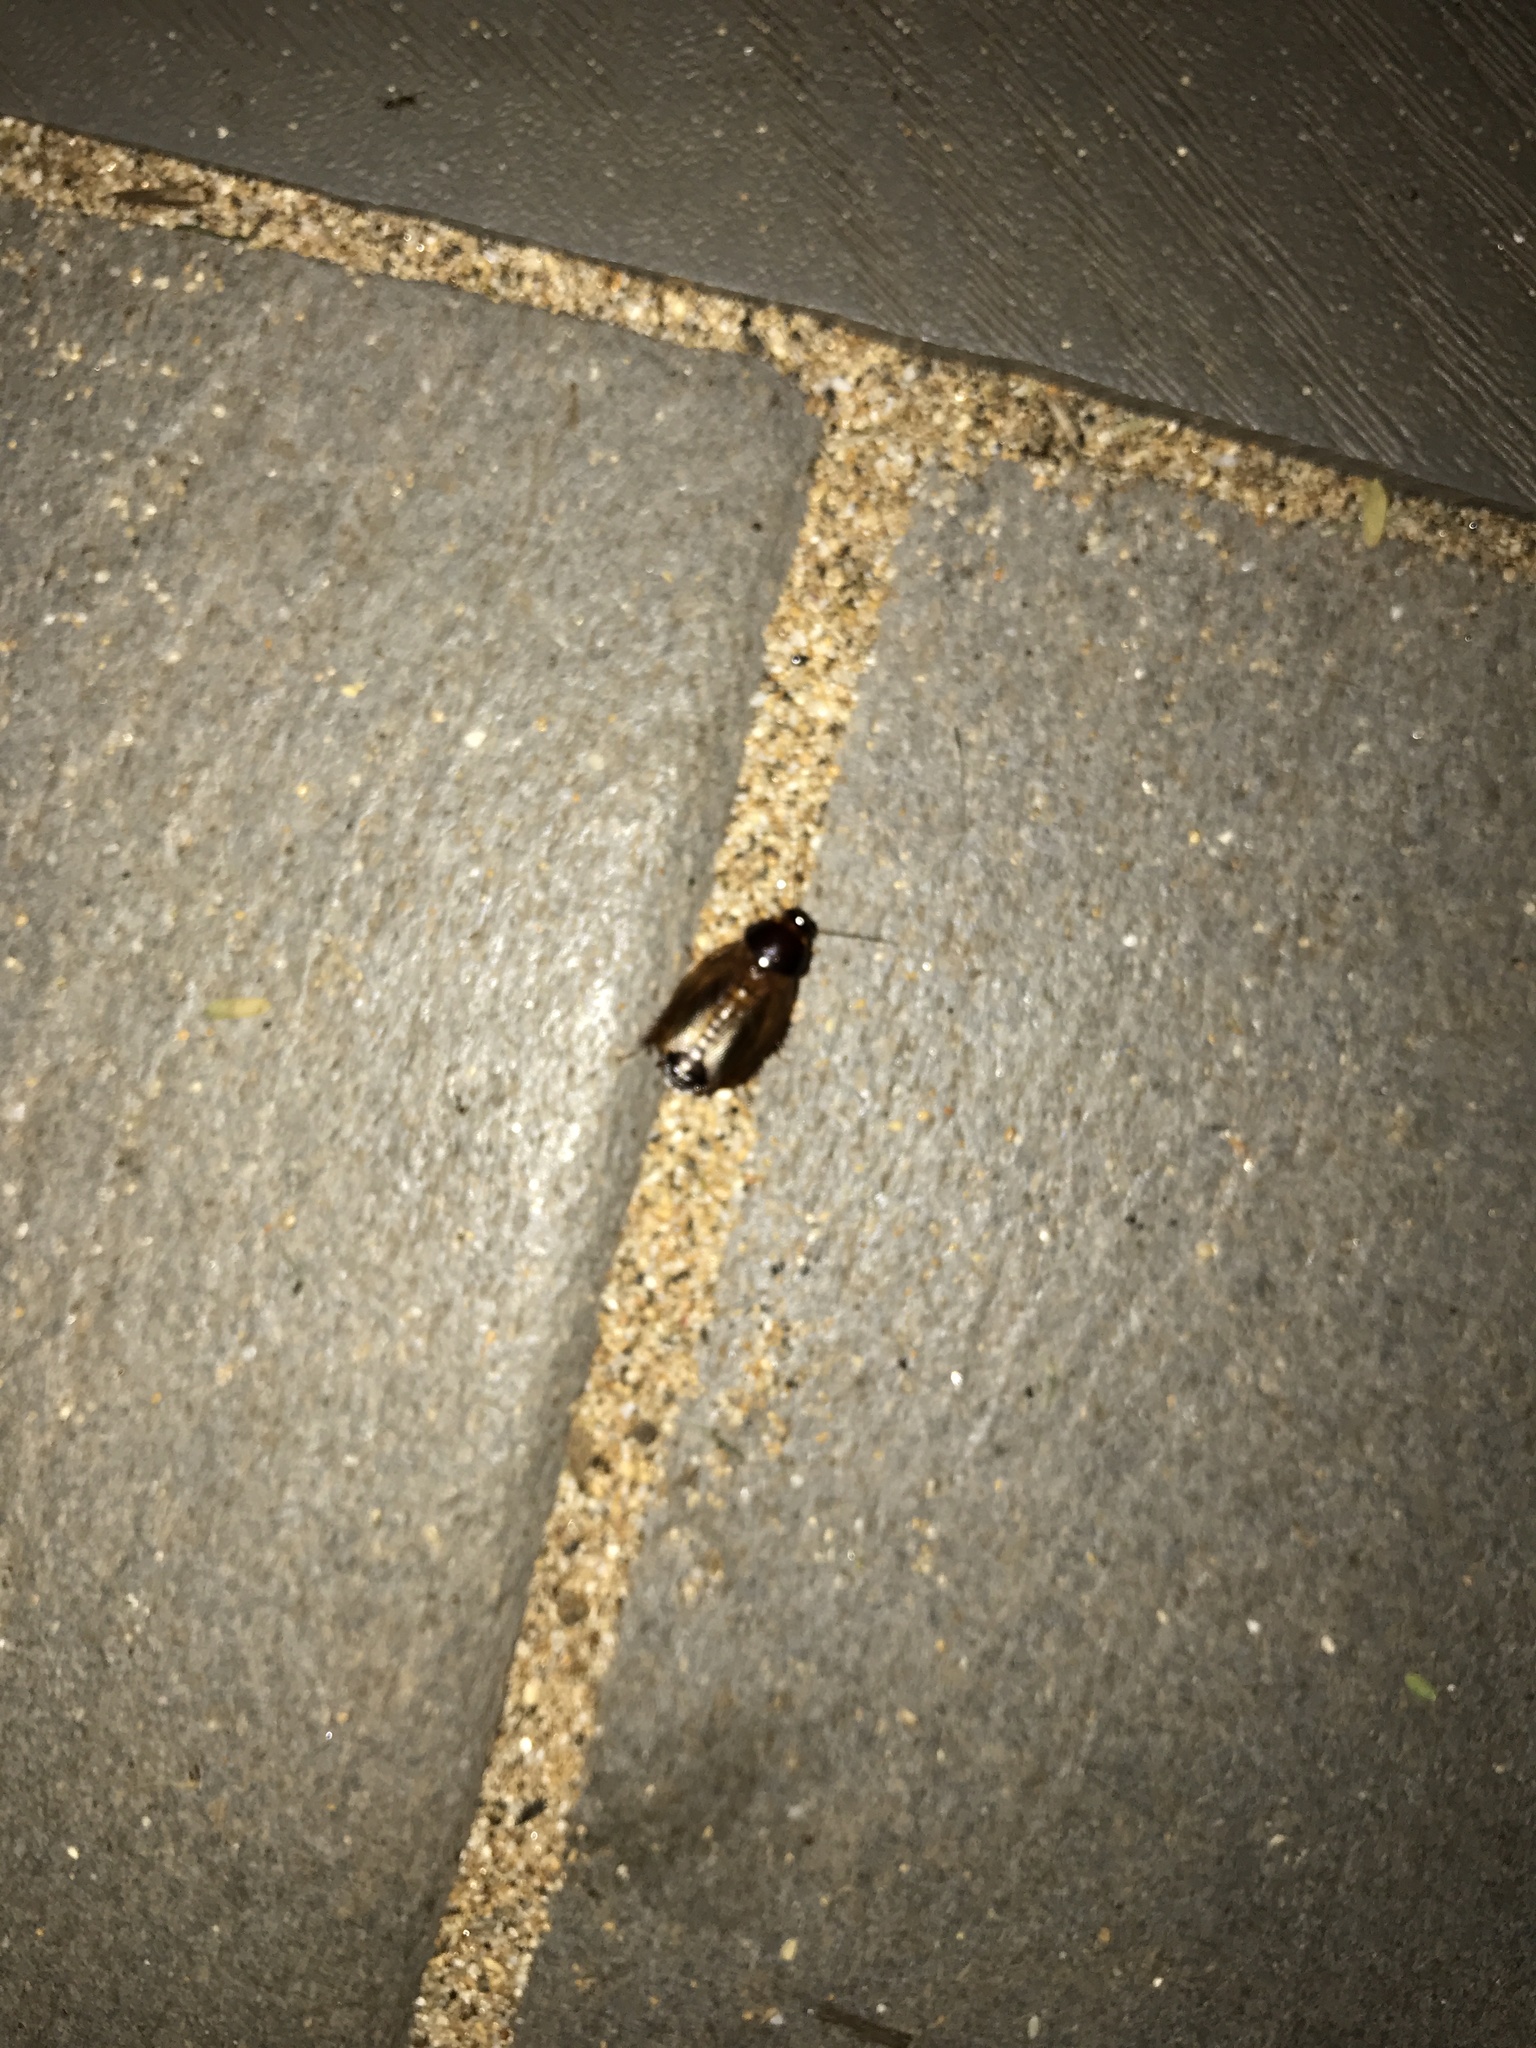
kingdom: Animalia
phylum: Arthropoda
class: Insecta
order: Blattodea
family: Blaberidae
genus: Pycnoscelus
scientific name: Pycnoscelus surinamensis
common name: Surinam cockroach
